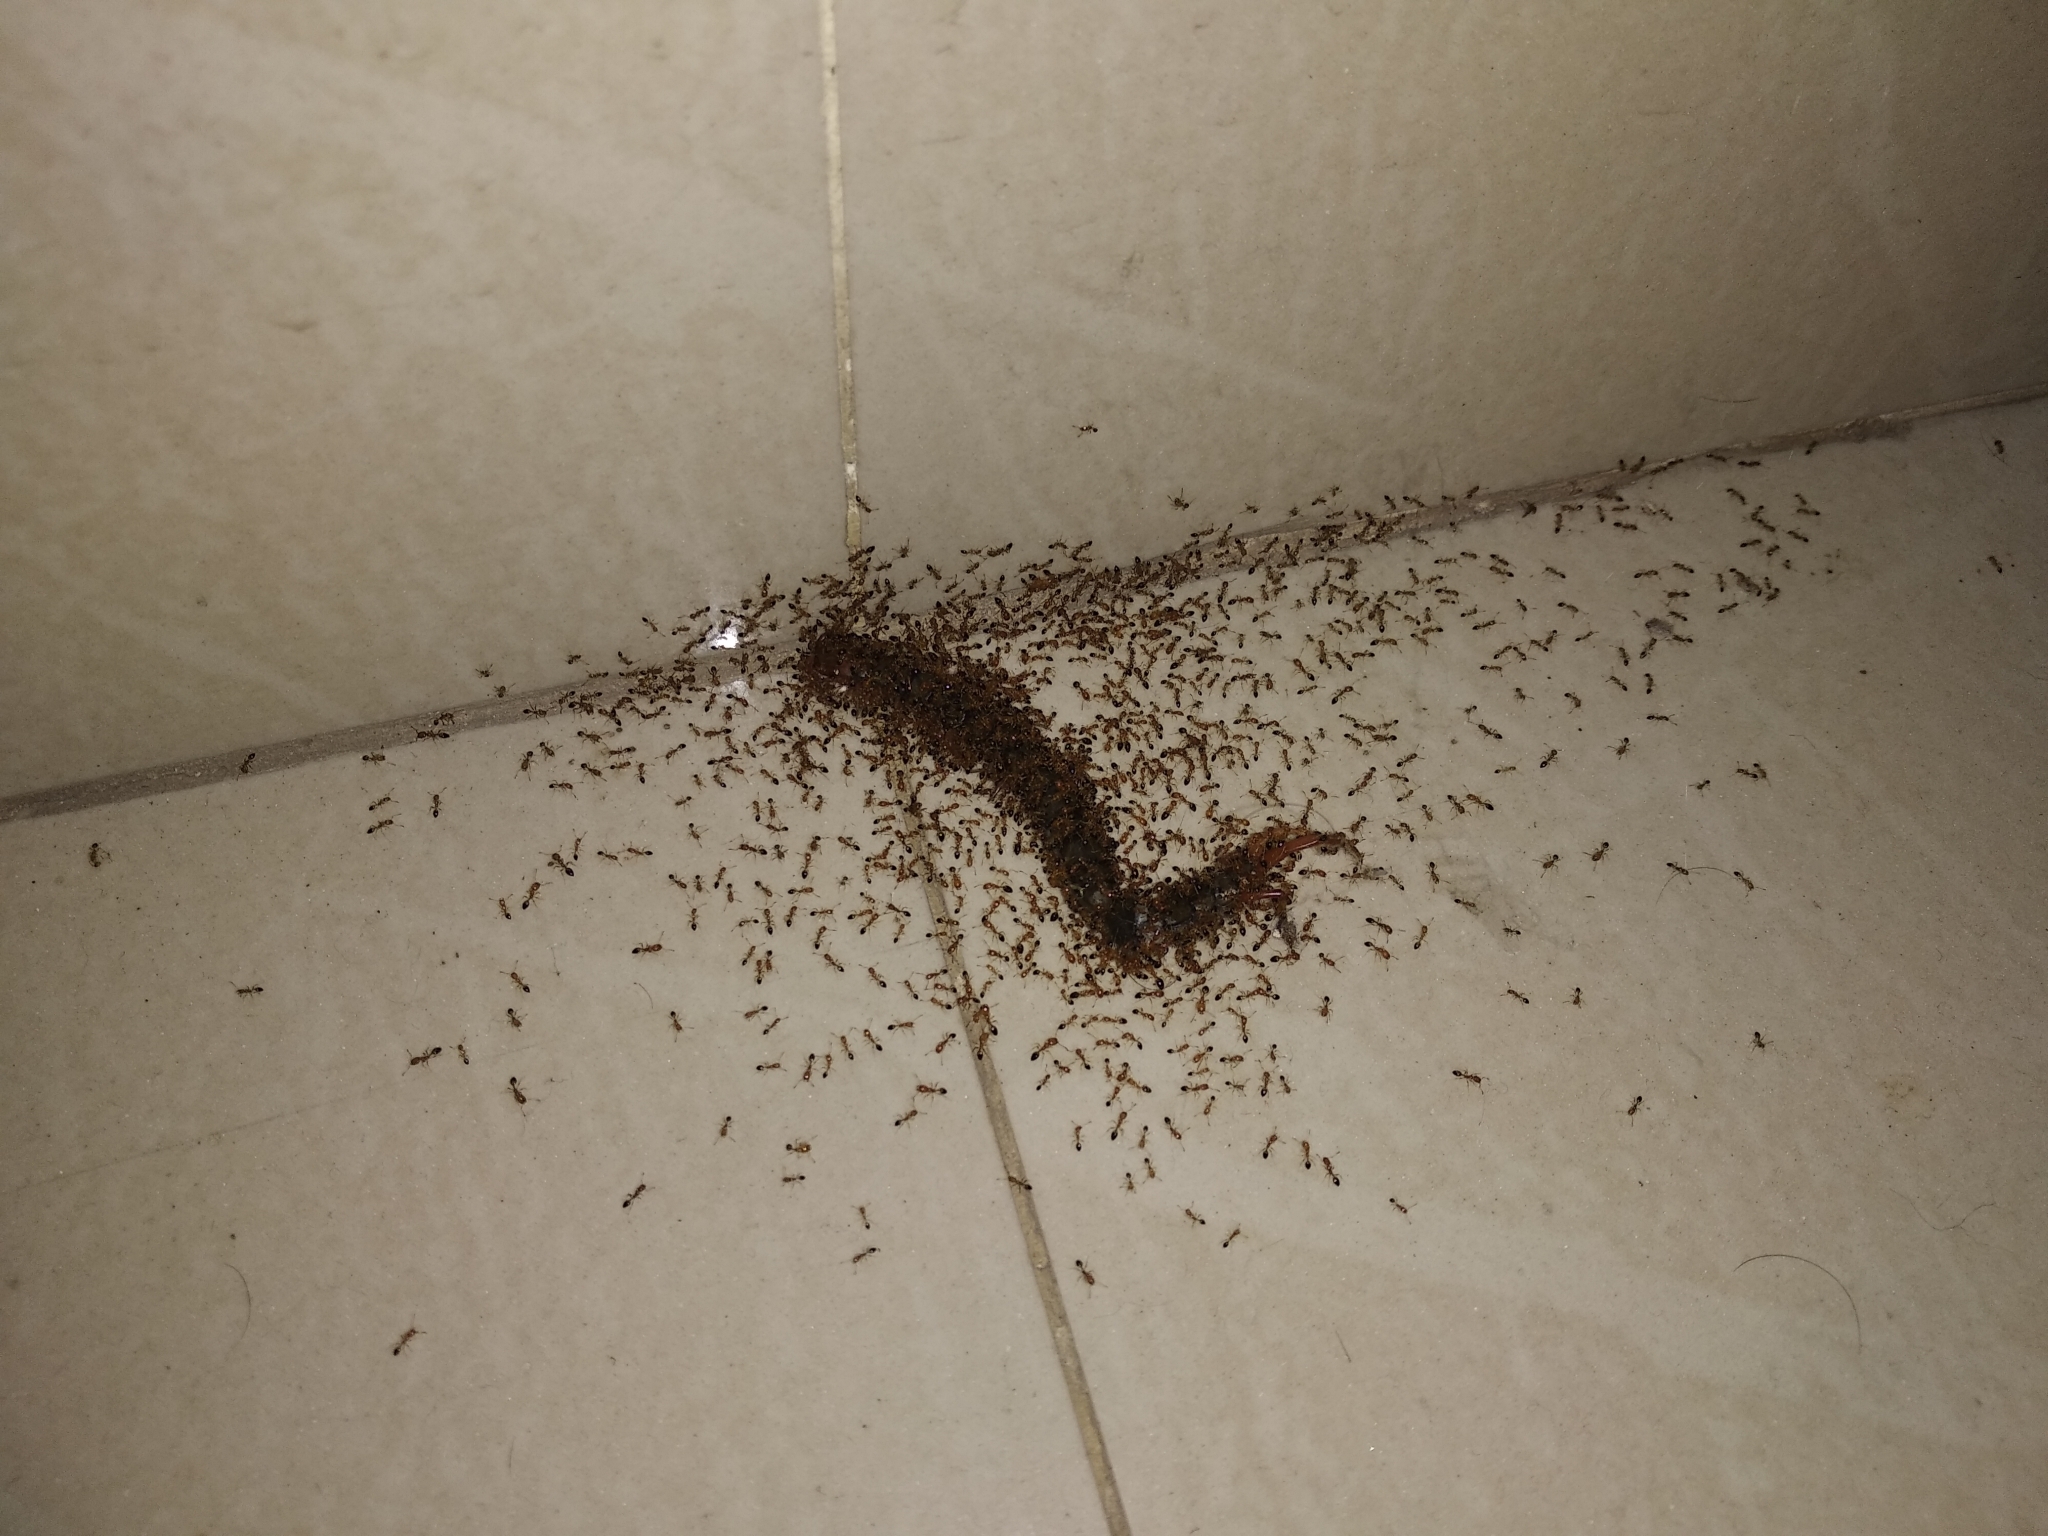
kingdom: Animalia
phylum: Arthropoda
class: Chilopoda
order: Scolopendromorpha
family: Scolopendridae
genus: Scolopendra
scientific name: Scolopendra morsitans
